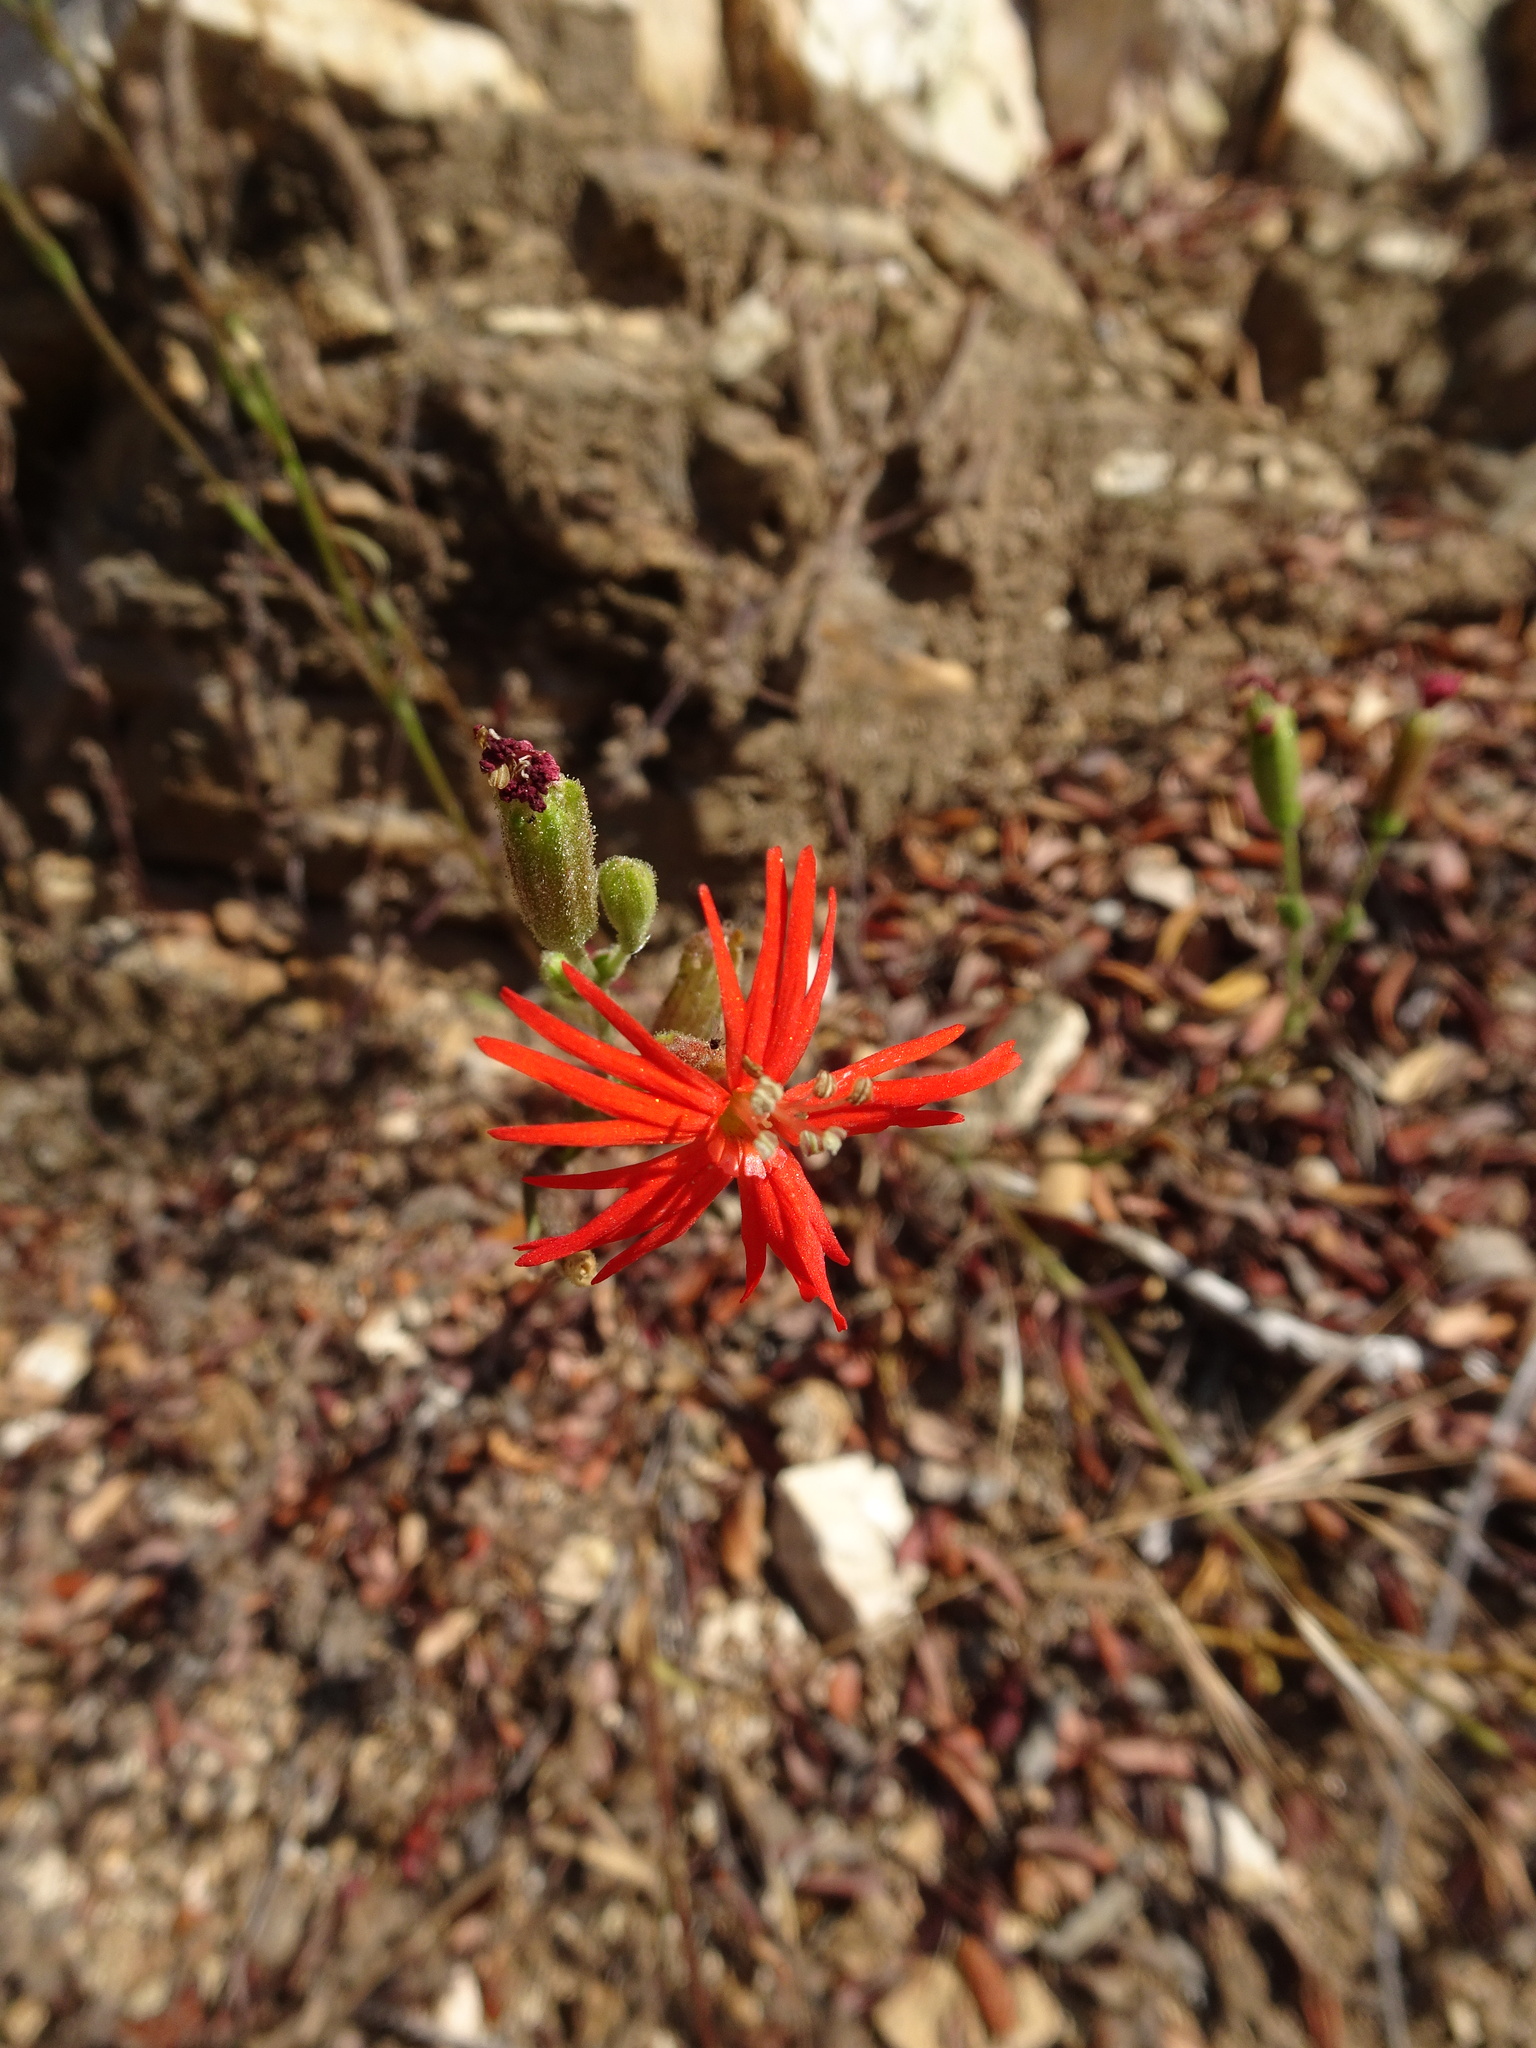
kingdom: Plantae
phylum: Tracheophyta
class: Magnoliopsida
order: Caryophyllales
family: Caryophyllaceae
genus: Silene
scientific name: Silene laciniata
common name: Indian-pink
